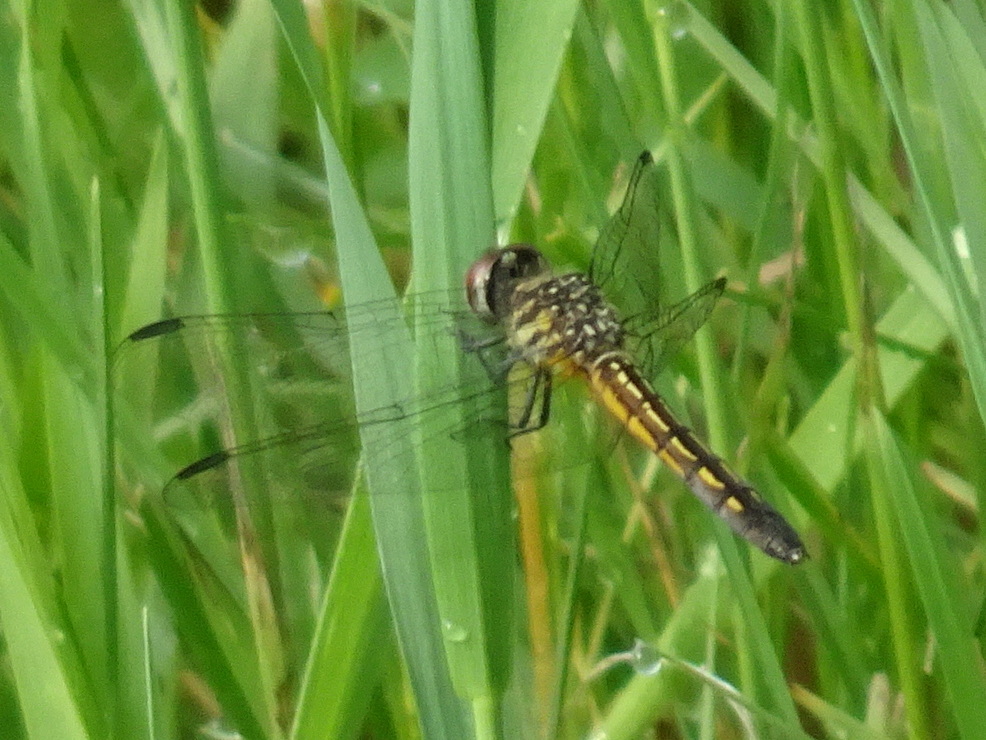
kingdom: Animalia
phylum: Arthropoda
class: Insecta
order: Odonata
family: Libellulidae
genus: Pachydiplax
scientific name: Pachydiplax longipennis
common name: Blue dasher
